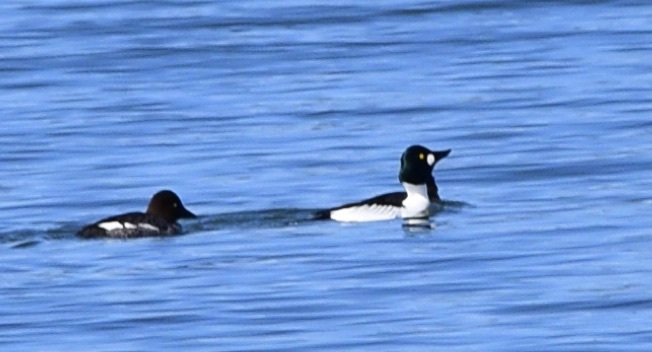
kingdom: Animalia
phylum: Chordata
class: Aves
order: Anseriformes
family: Anatidae
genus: Bucephala
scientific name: Bucephala clangula
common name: Common goldeneye
